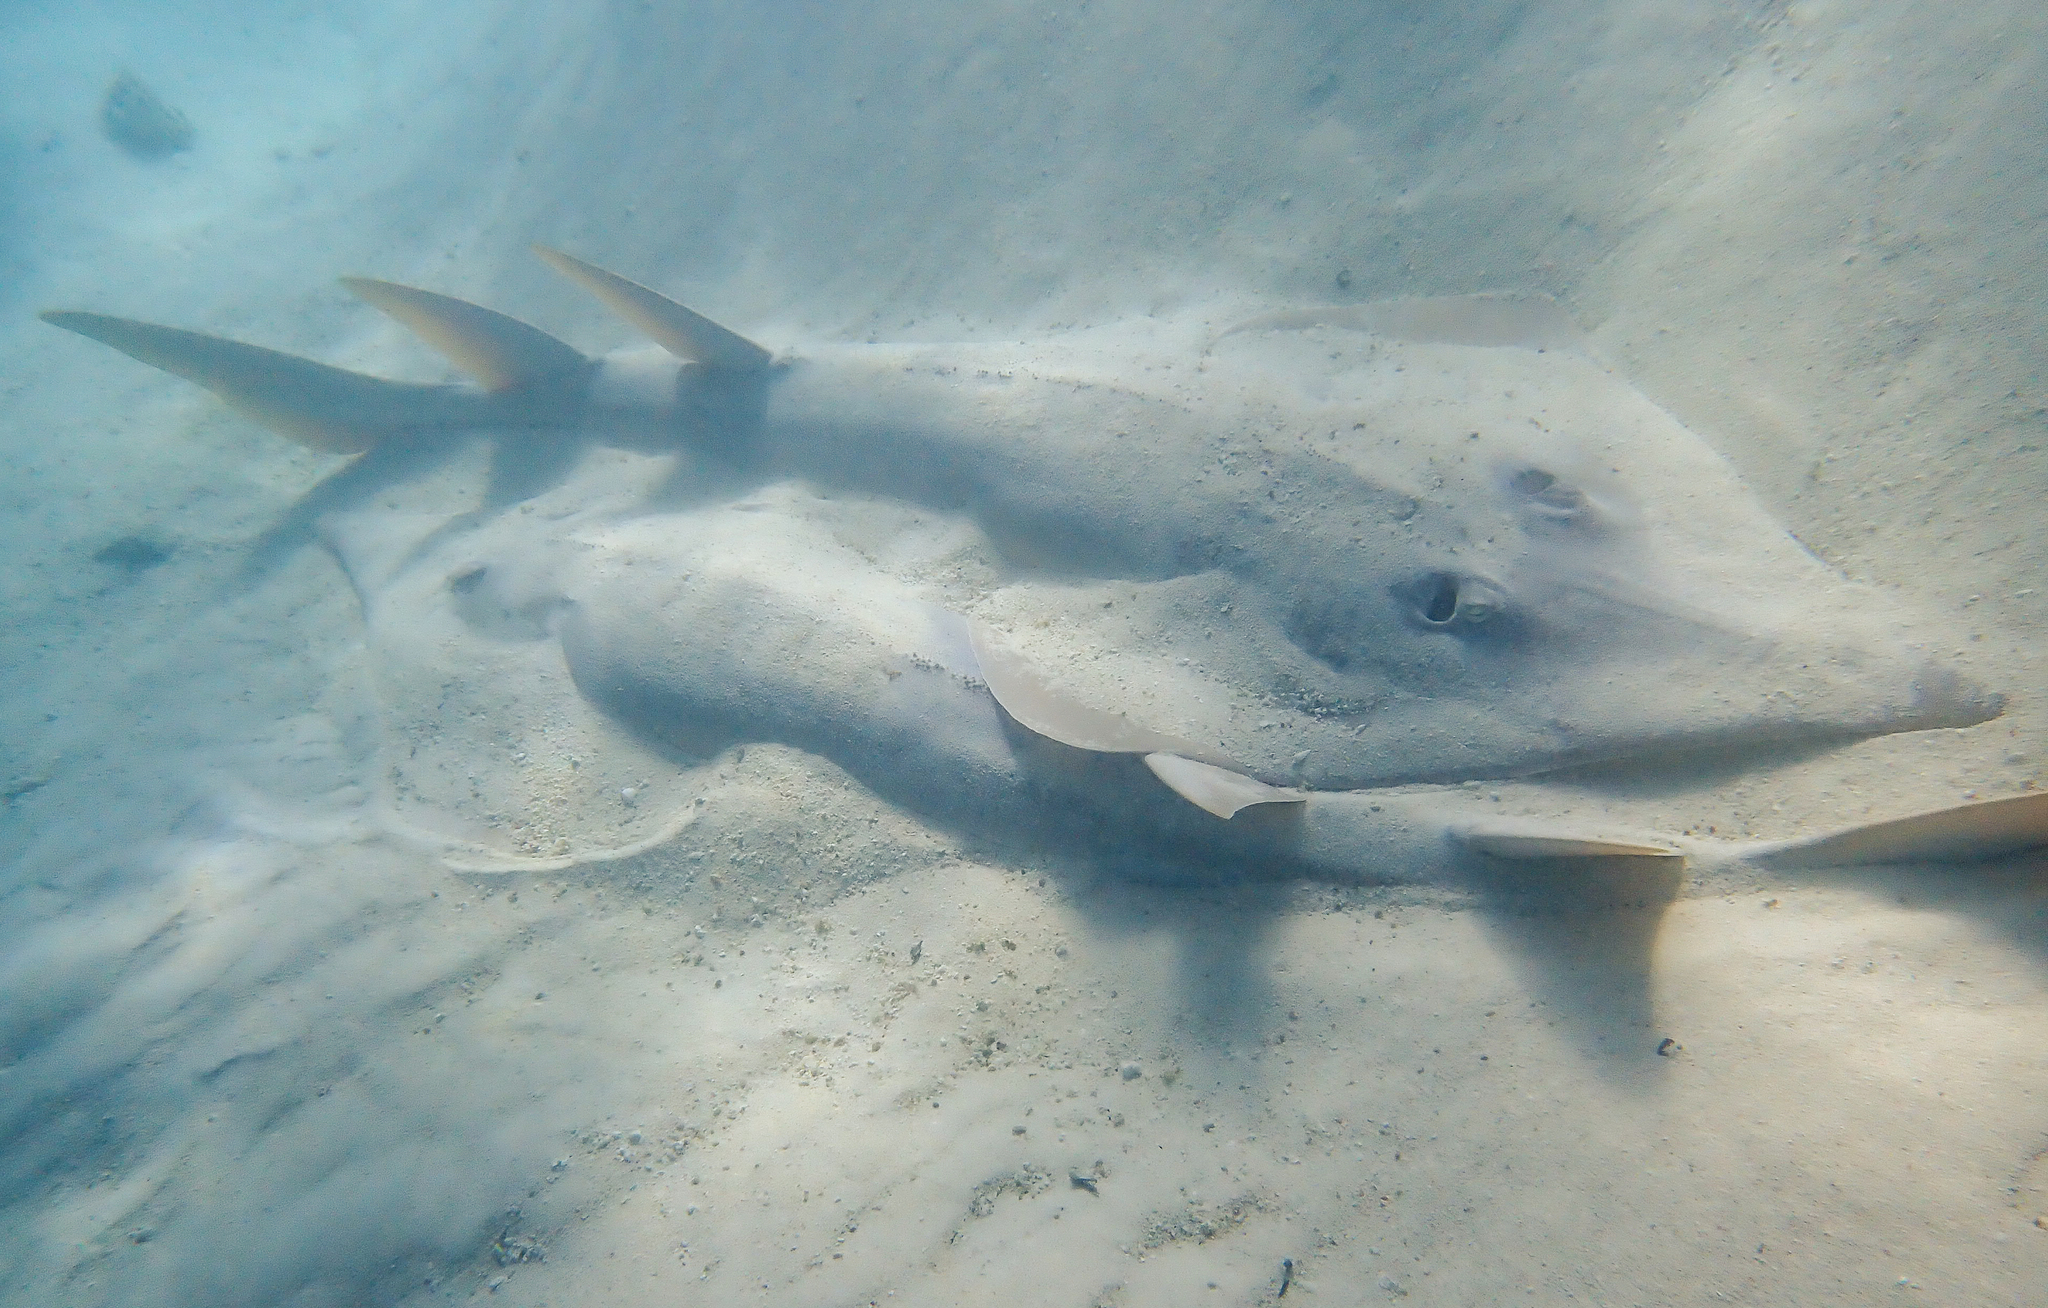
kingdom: Animalia
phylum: Chordata
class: Elasmobranchii
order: Rhinopristiformes
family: Glaucostegidae
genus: Glaucostegus
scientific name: Glaucostegus typus
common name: Giant shovelnose ray
